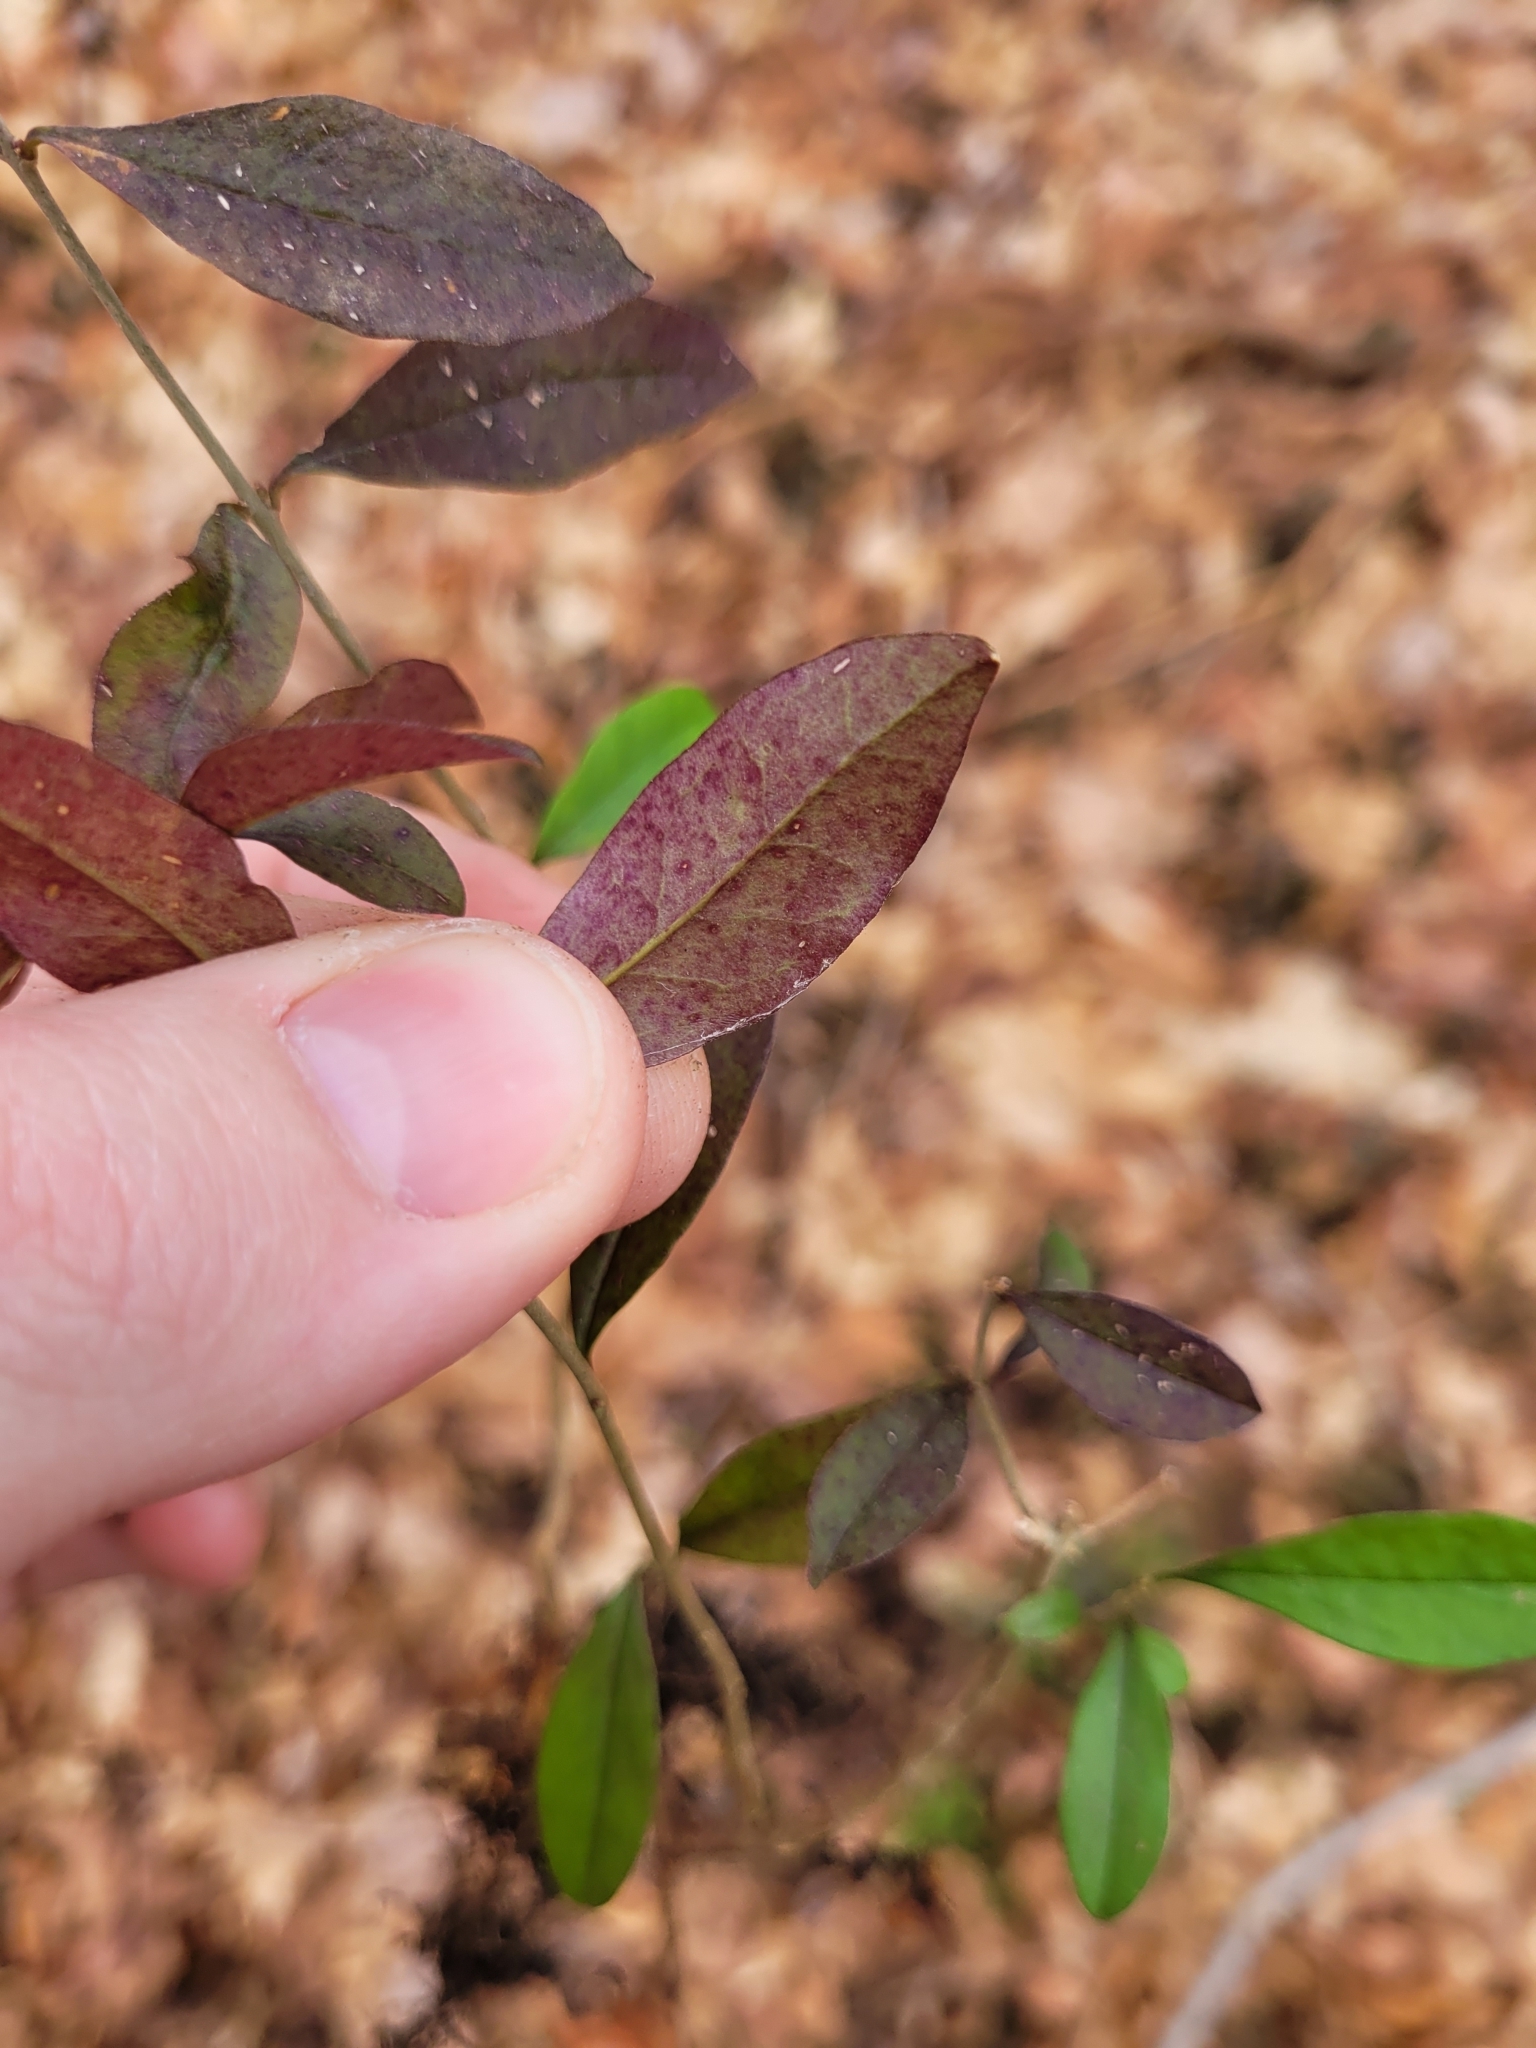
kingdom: Plantae
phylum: Tracheophyta
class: Magnoliopsida
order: Lamiales
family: Oleaceae
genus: Ligustrum
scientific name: Ligustrum obtusifolium
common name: Border privet
